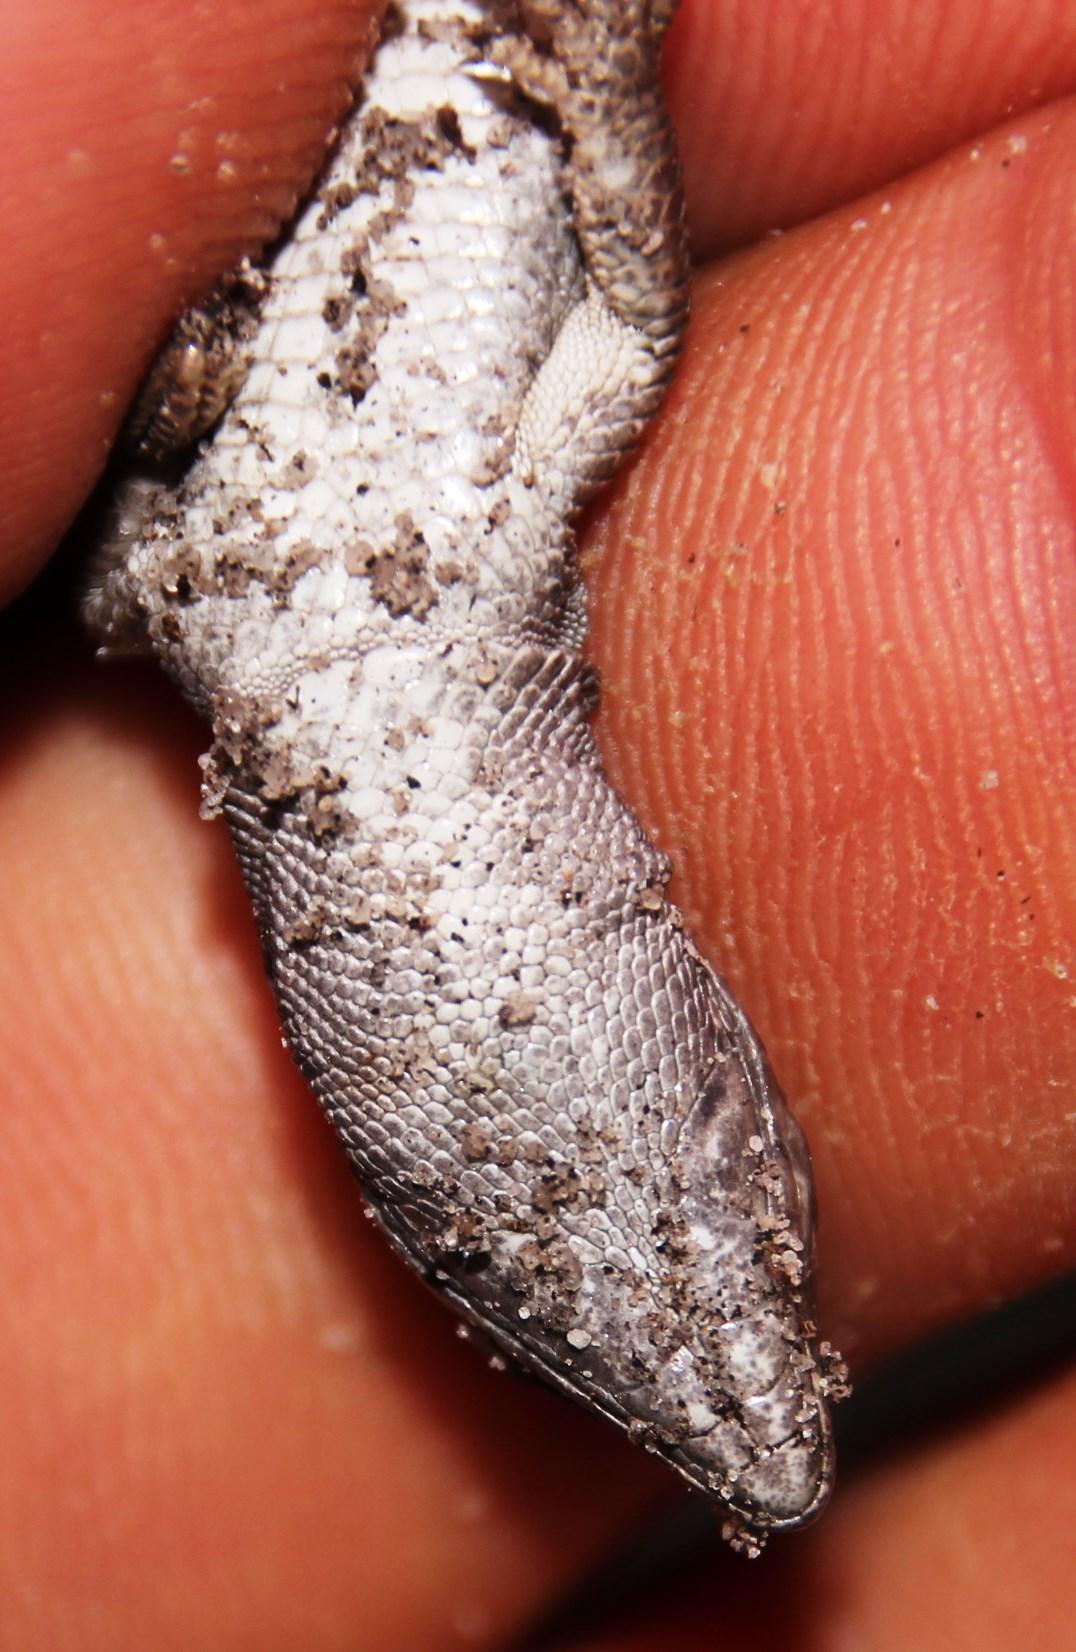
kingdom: Animalia
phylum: Chordata
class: Squamata
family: Lacertidae
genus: Meroles
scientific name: Meroles knoxii
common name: Knox's desert lizard
